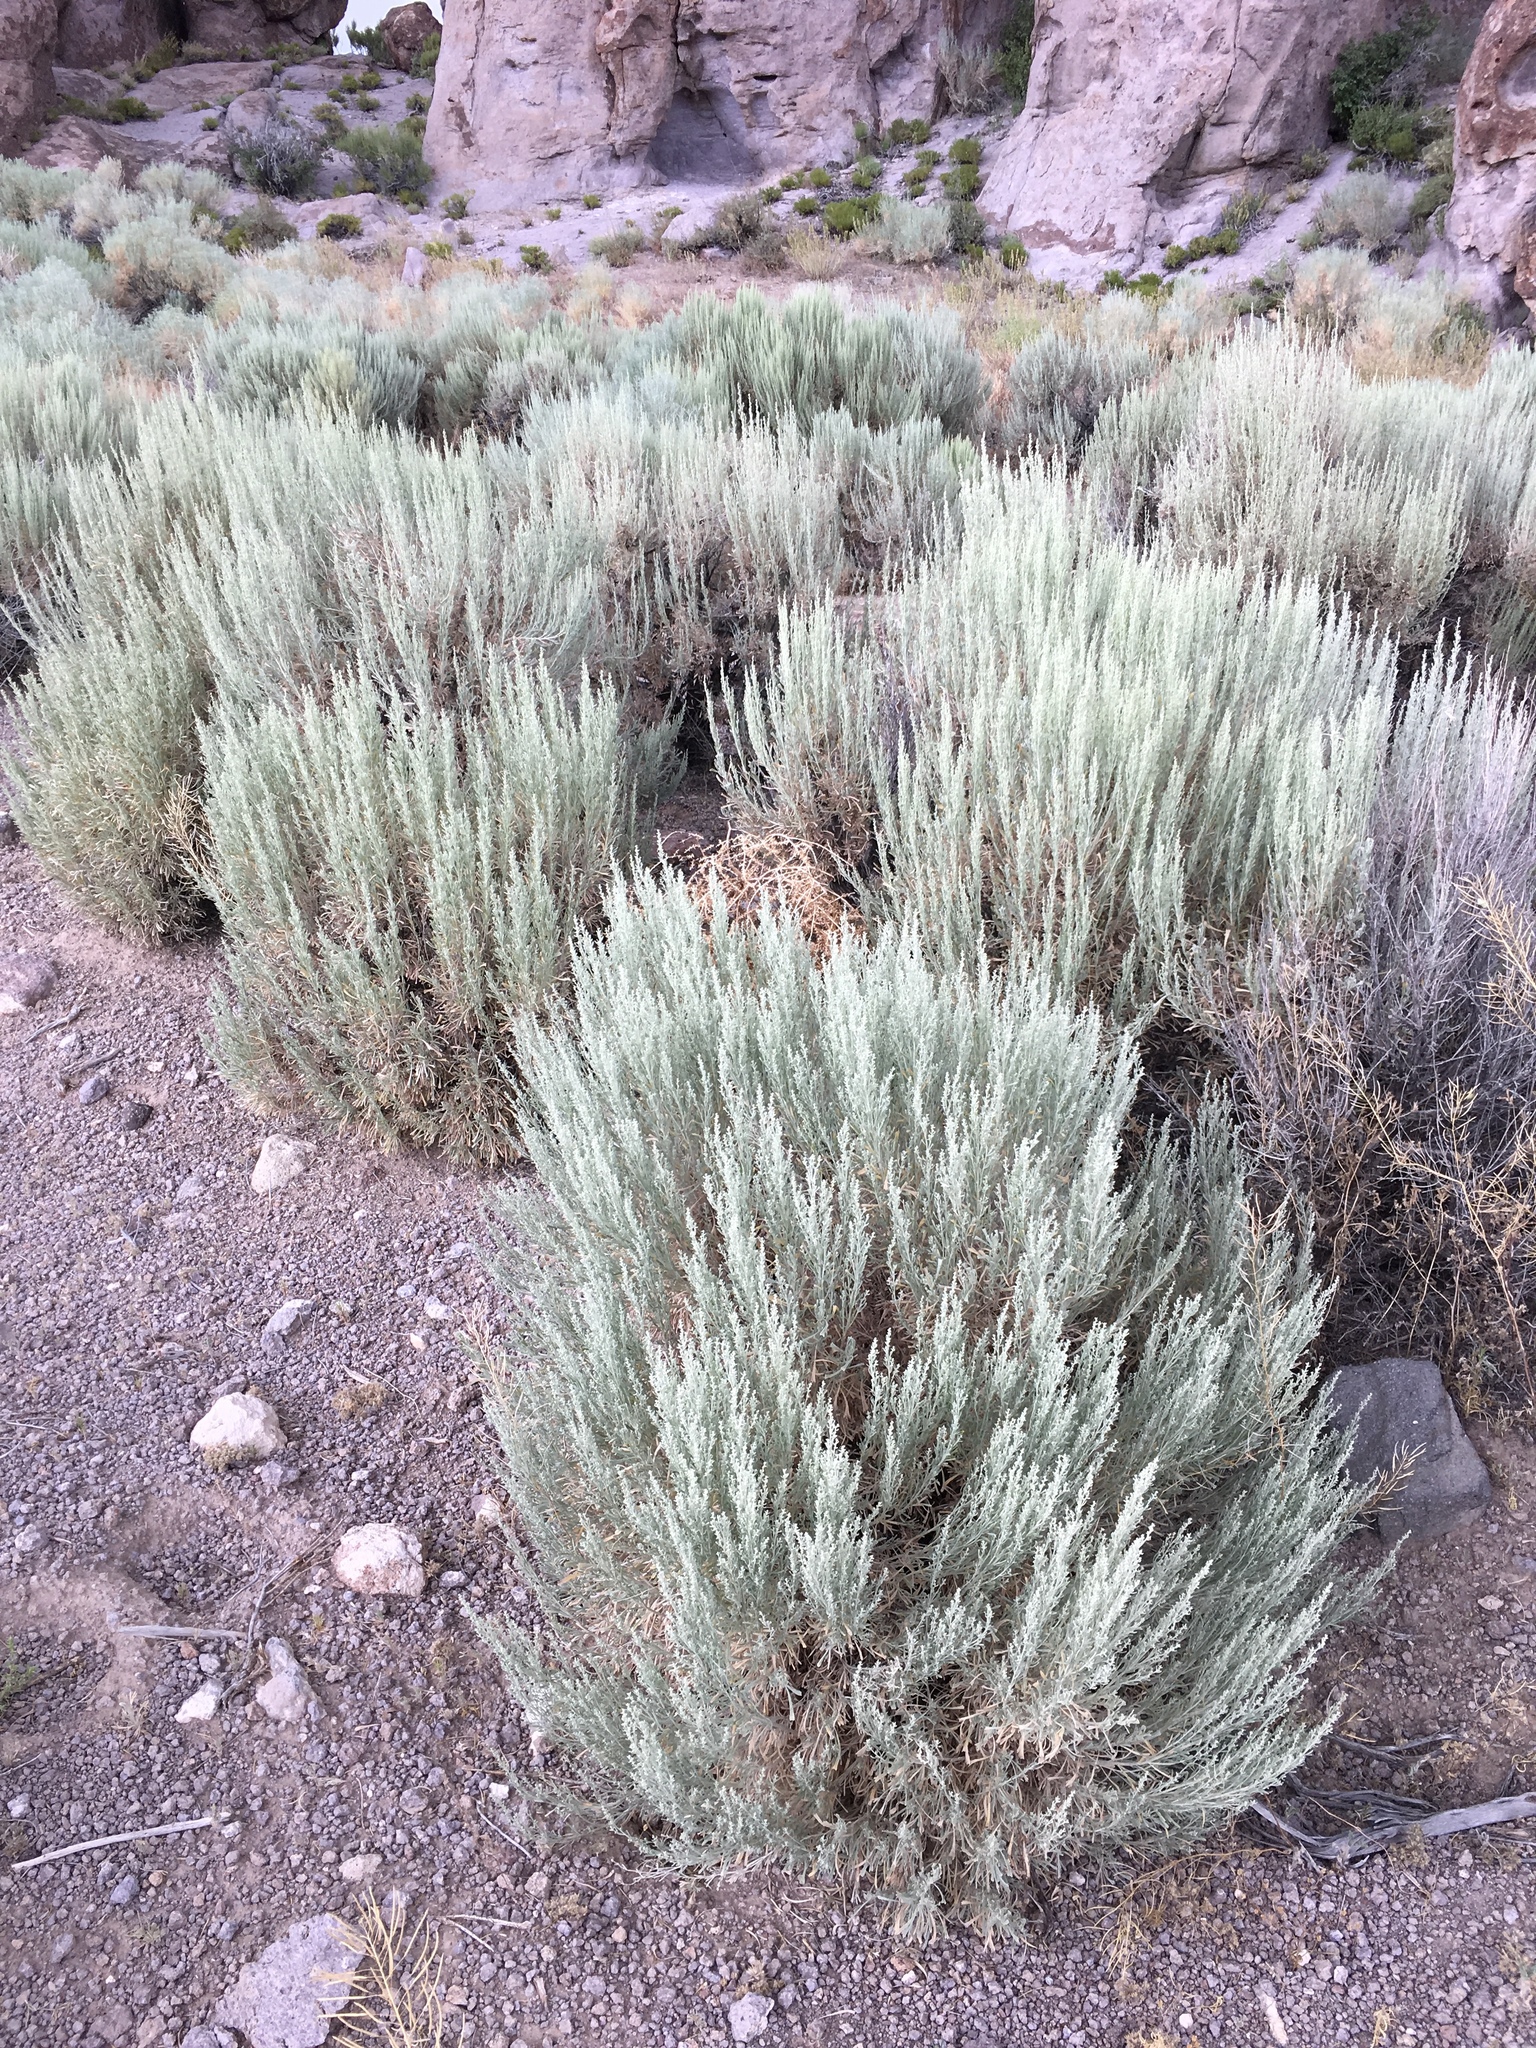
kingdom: Plantae
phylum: Tracheophyta
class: Magnoliopsida
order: Asterales
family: Asteraceae
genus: Artemisia
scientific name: Artemisia tridentata
